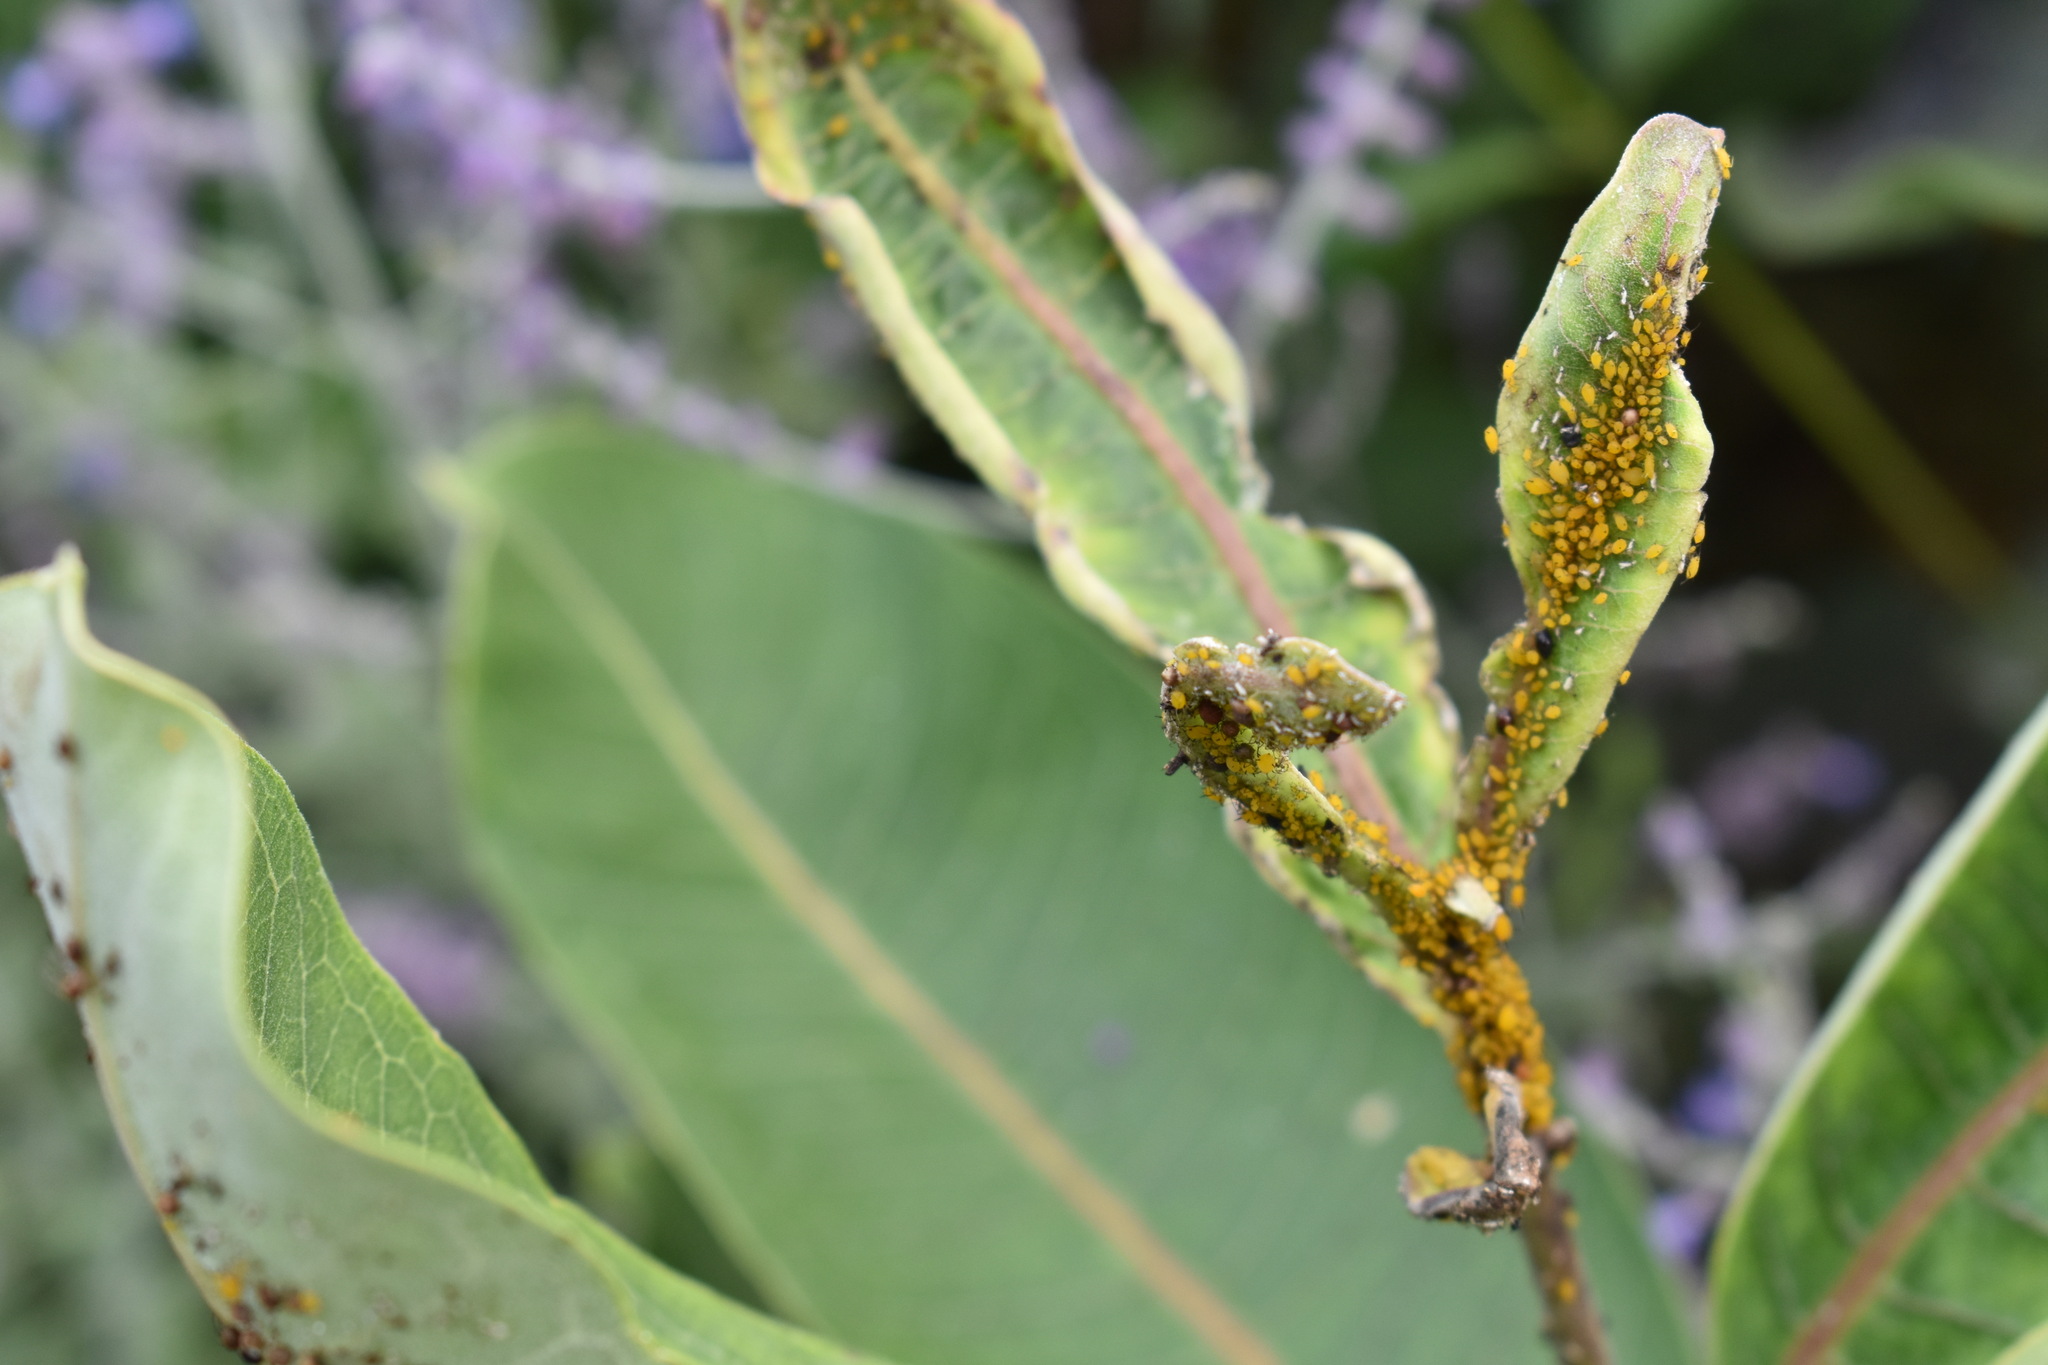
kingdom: Animalia
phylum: Arthropoda
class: Insecta
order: Hemiptera
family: Aphididae
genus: Aphis
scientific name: Aphis nerii
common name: Oleander aphid
